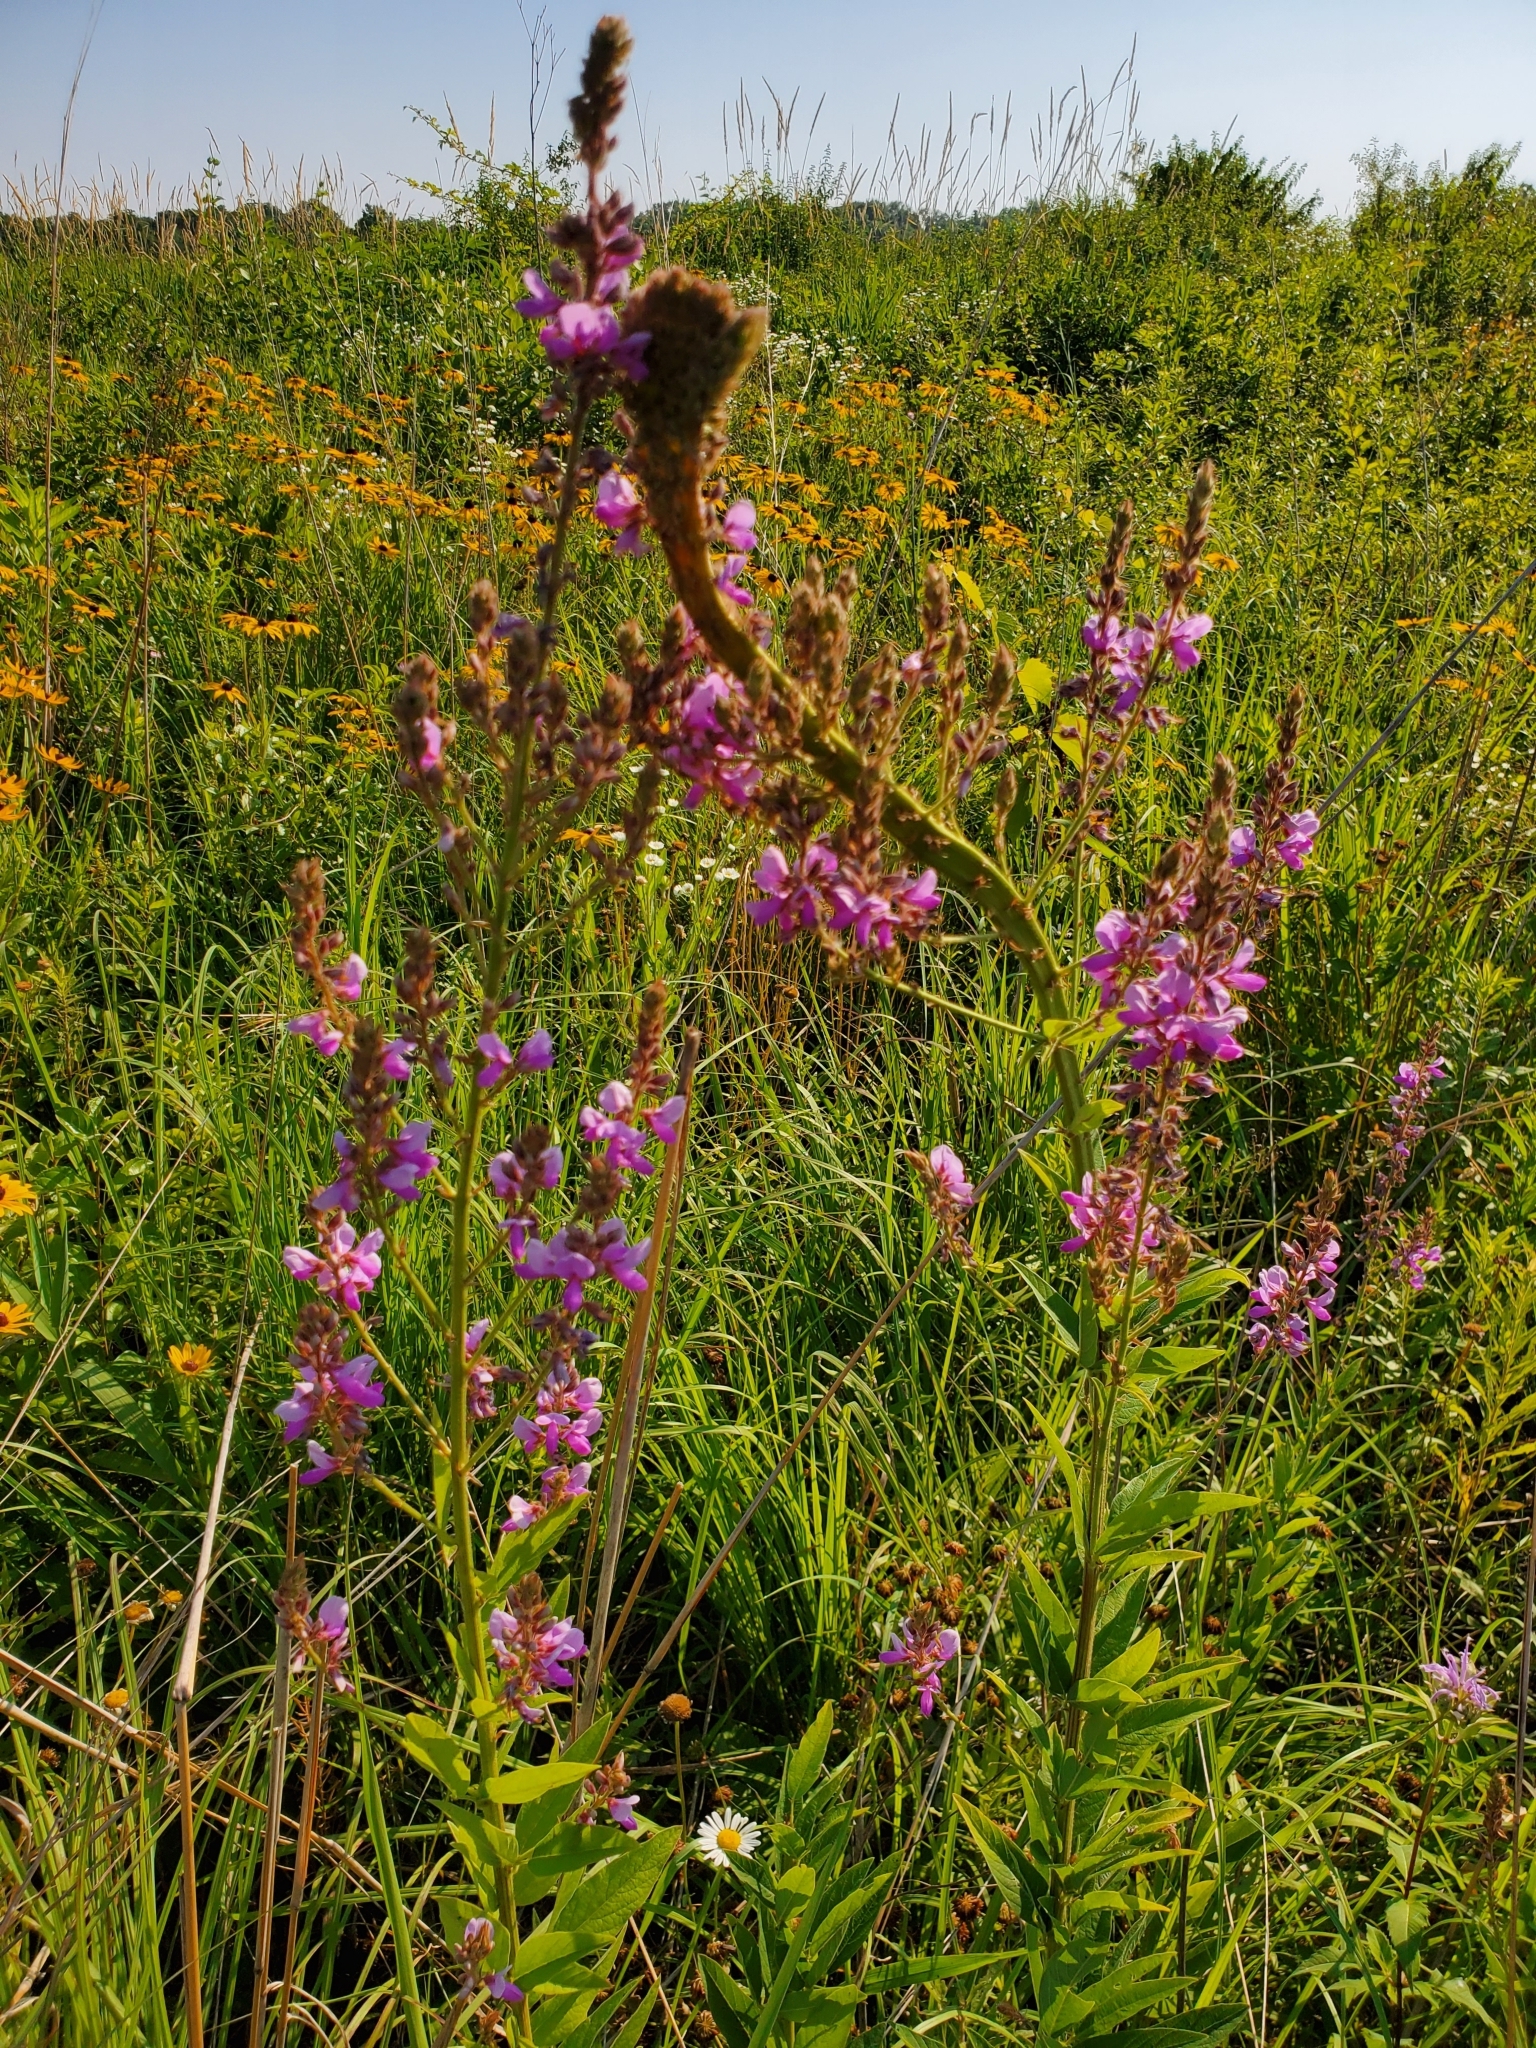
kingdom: Plantae
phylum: Tracheophyta
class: Magnoliopsida
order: Fabales
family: Fabaceae
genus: Desmodium
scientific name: Desmodium canadense
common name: Canada tick-trefoil
